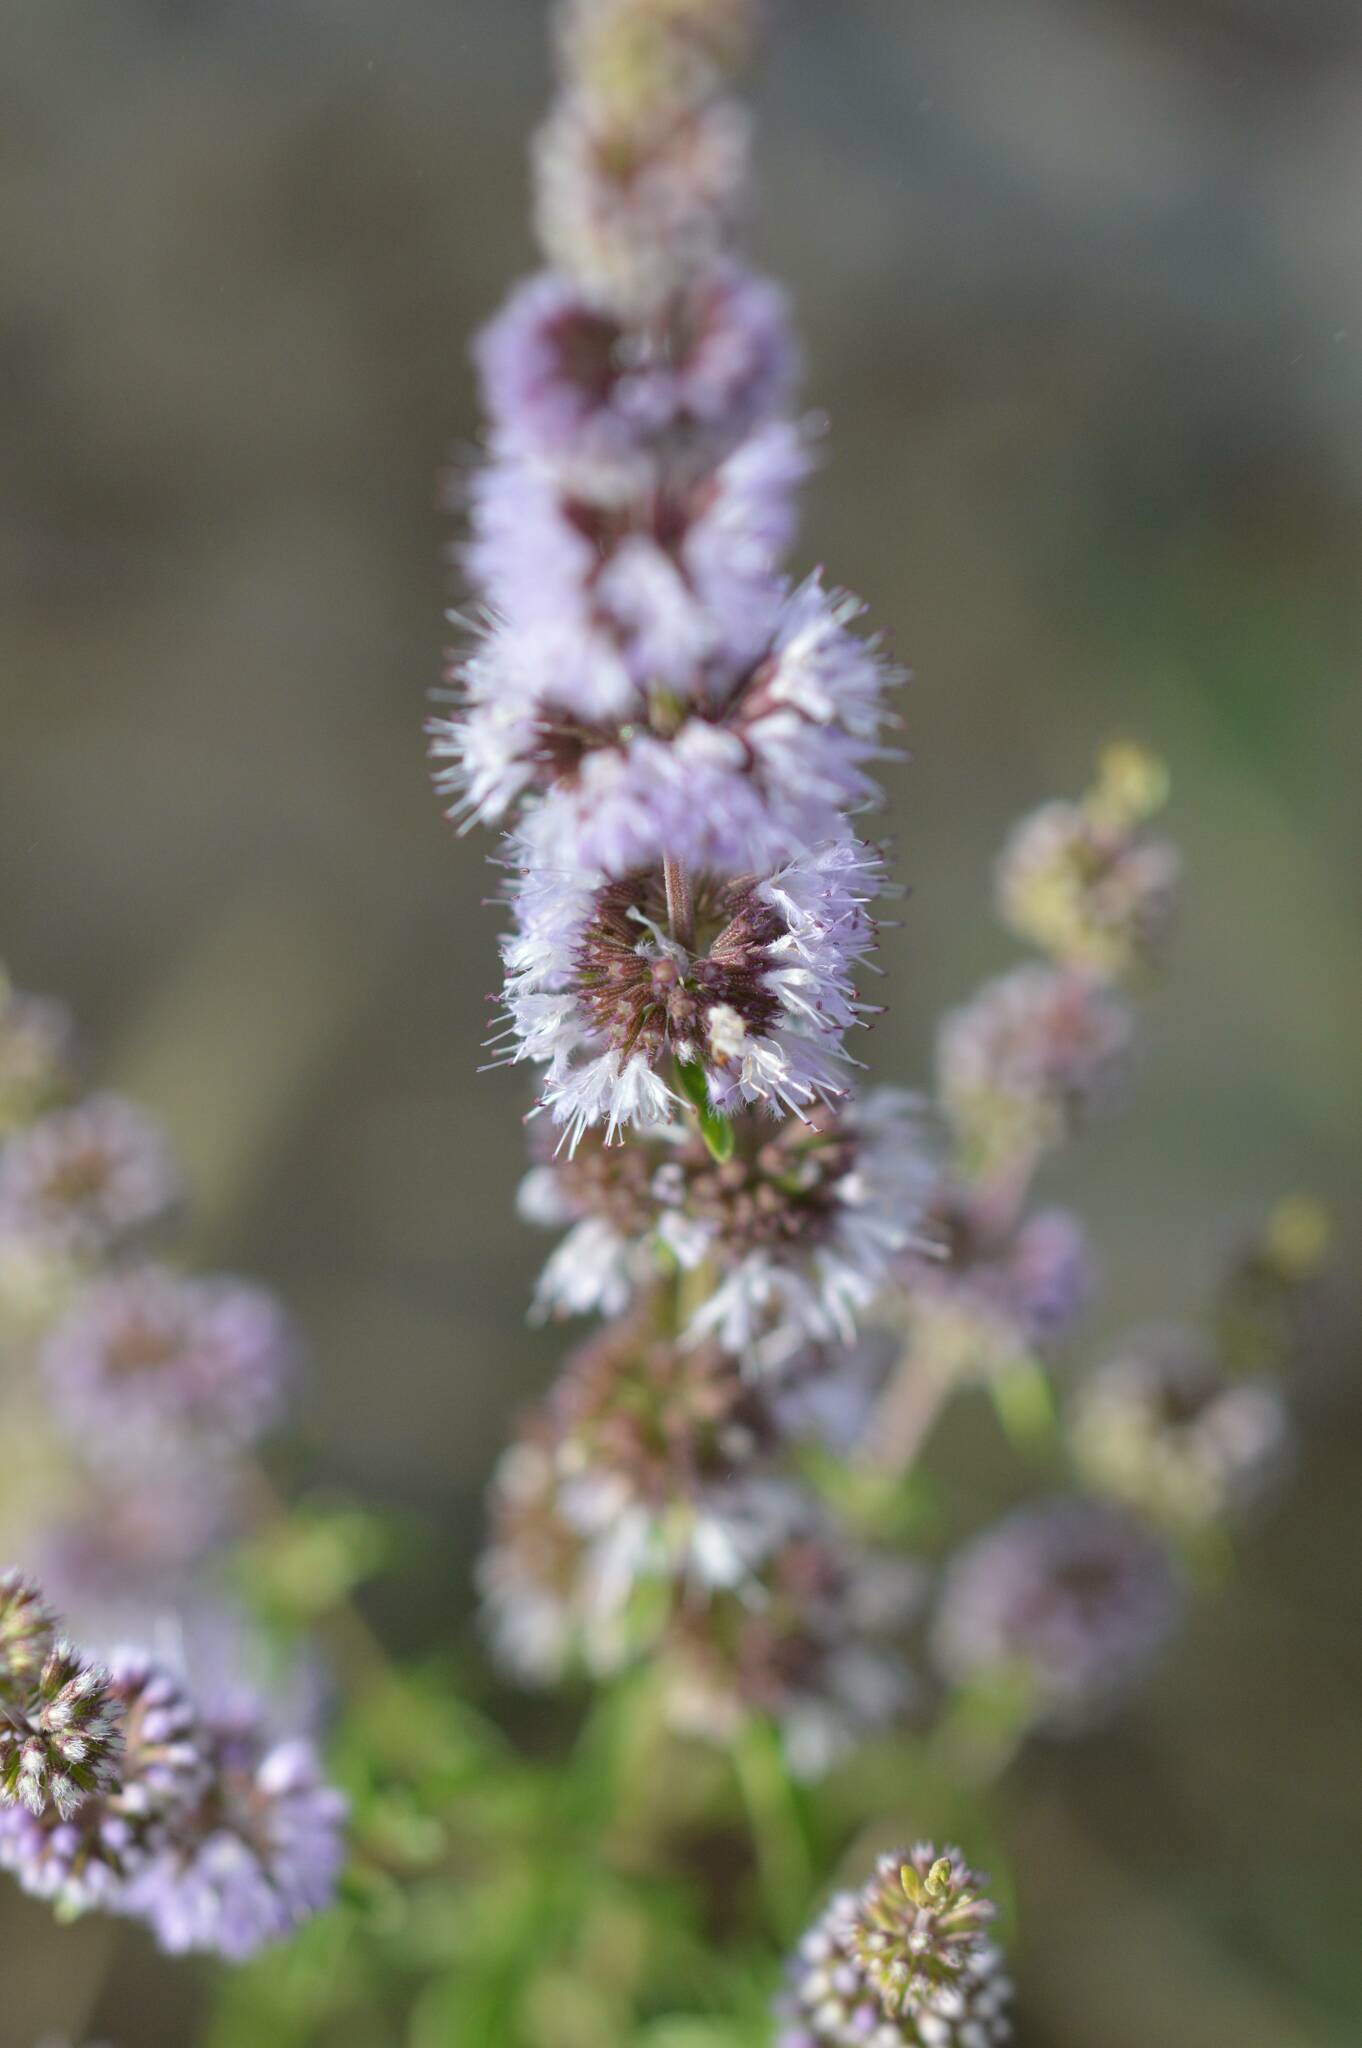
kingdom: Plantae
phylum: Tracheophyta
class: Magnoliopsida
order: Lamiales
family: Lamiaceae
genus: Mentha
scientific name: Mentha pulegium
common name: Pennyroyal
